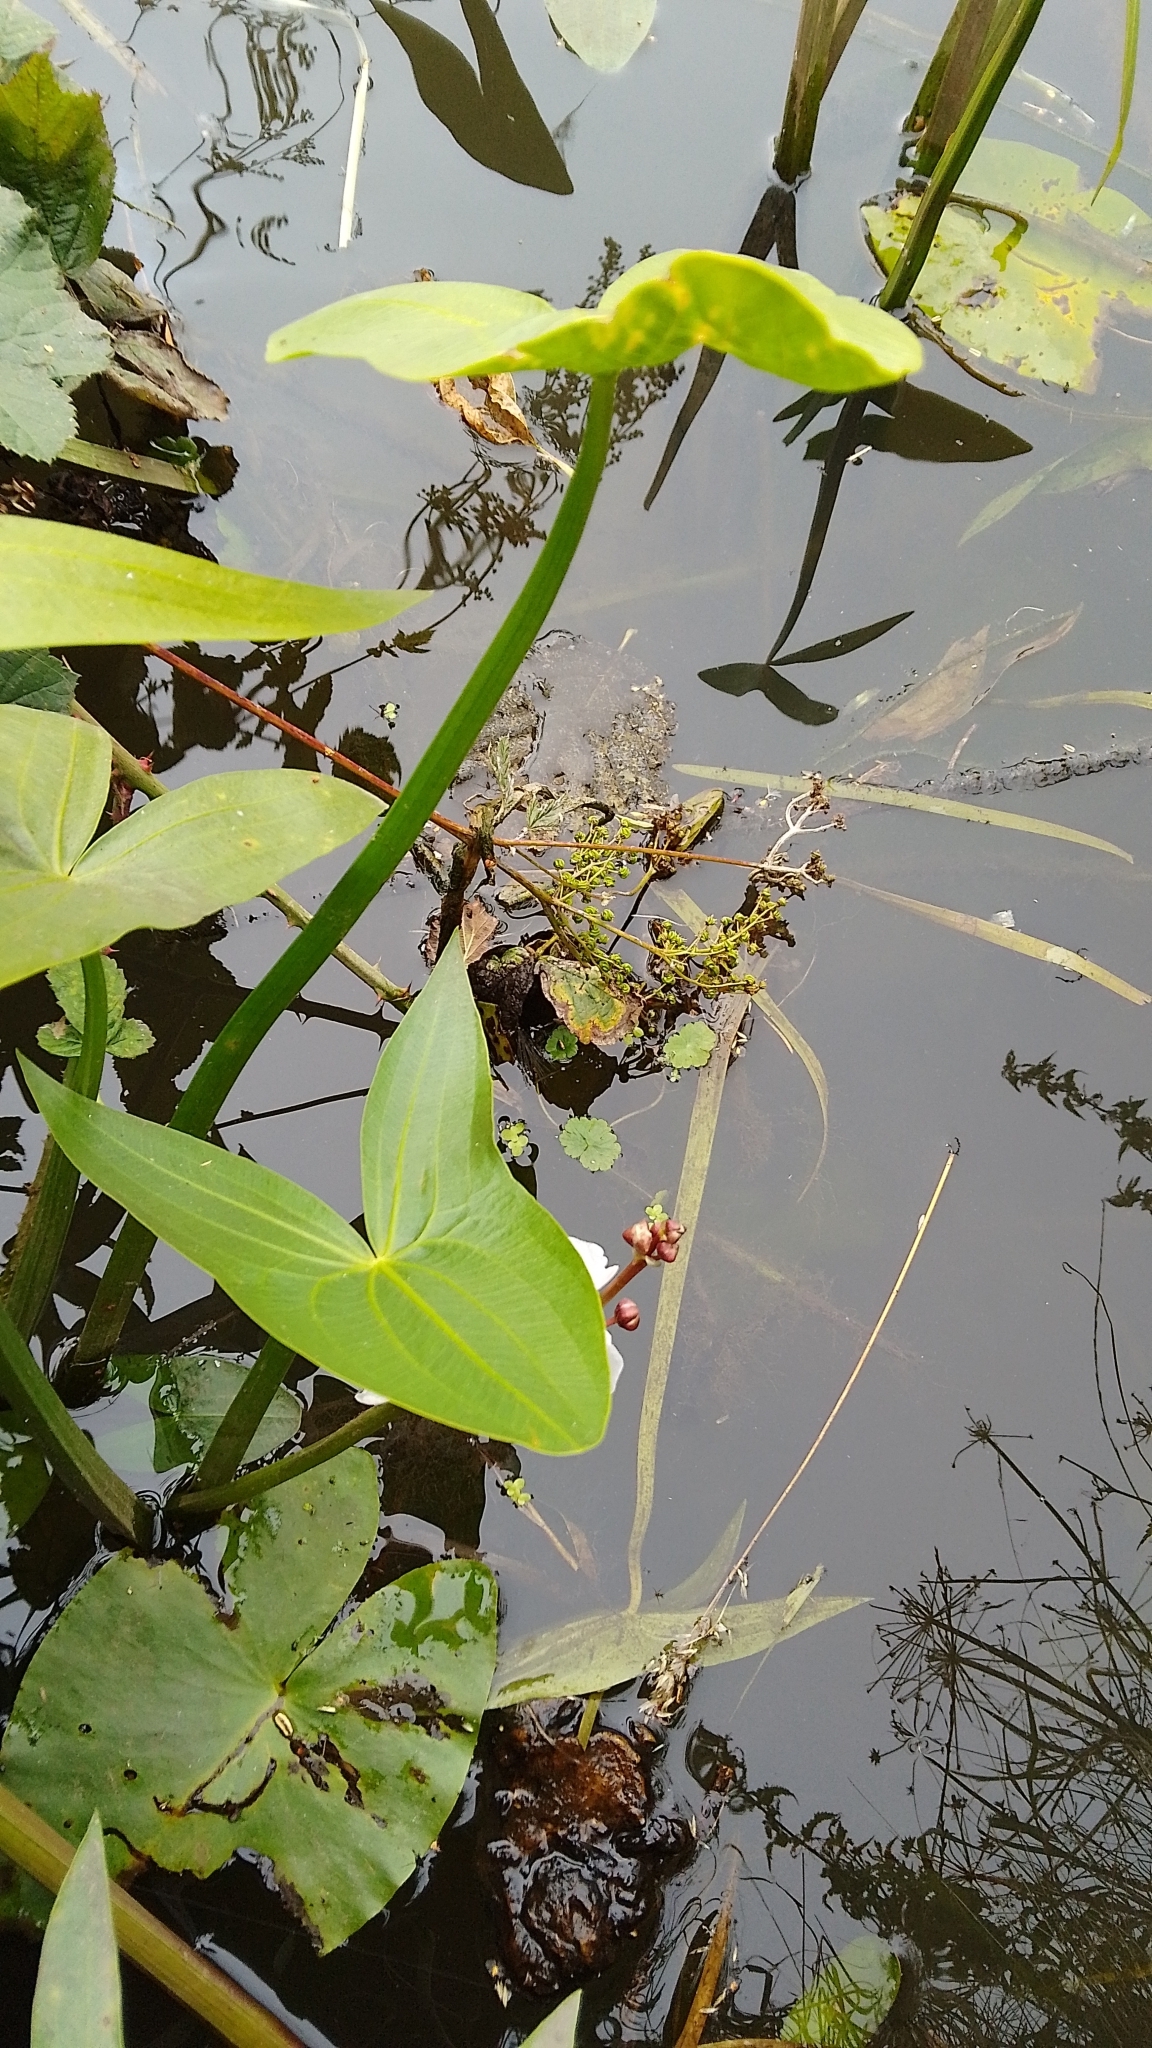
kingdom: Plantae
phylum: Tracheophyta
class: Liliopsida
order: Alismatales
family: Alismataceae
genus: Sagittaria
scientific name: Sagittaria sagittifolia
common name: Arrowhead
